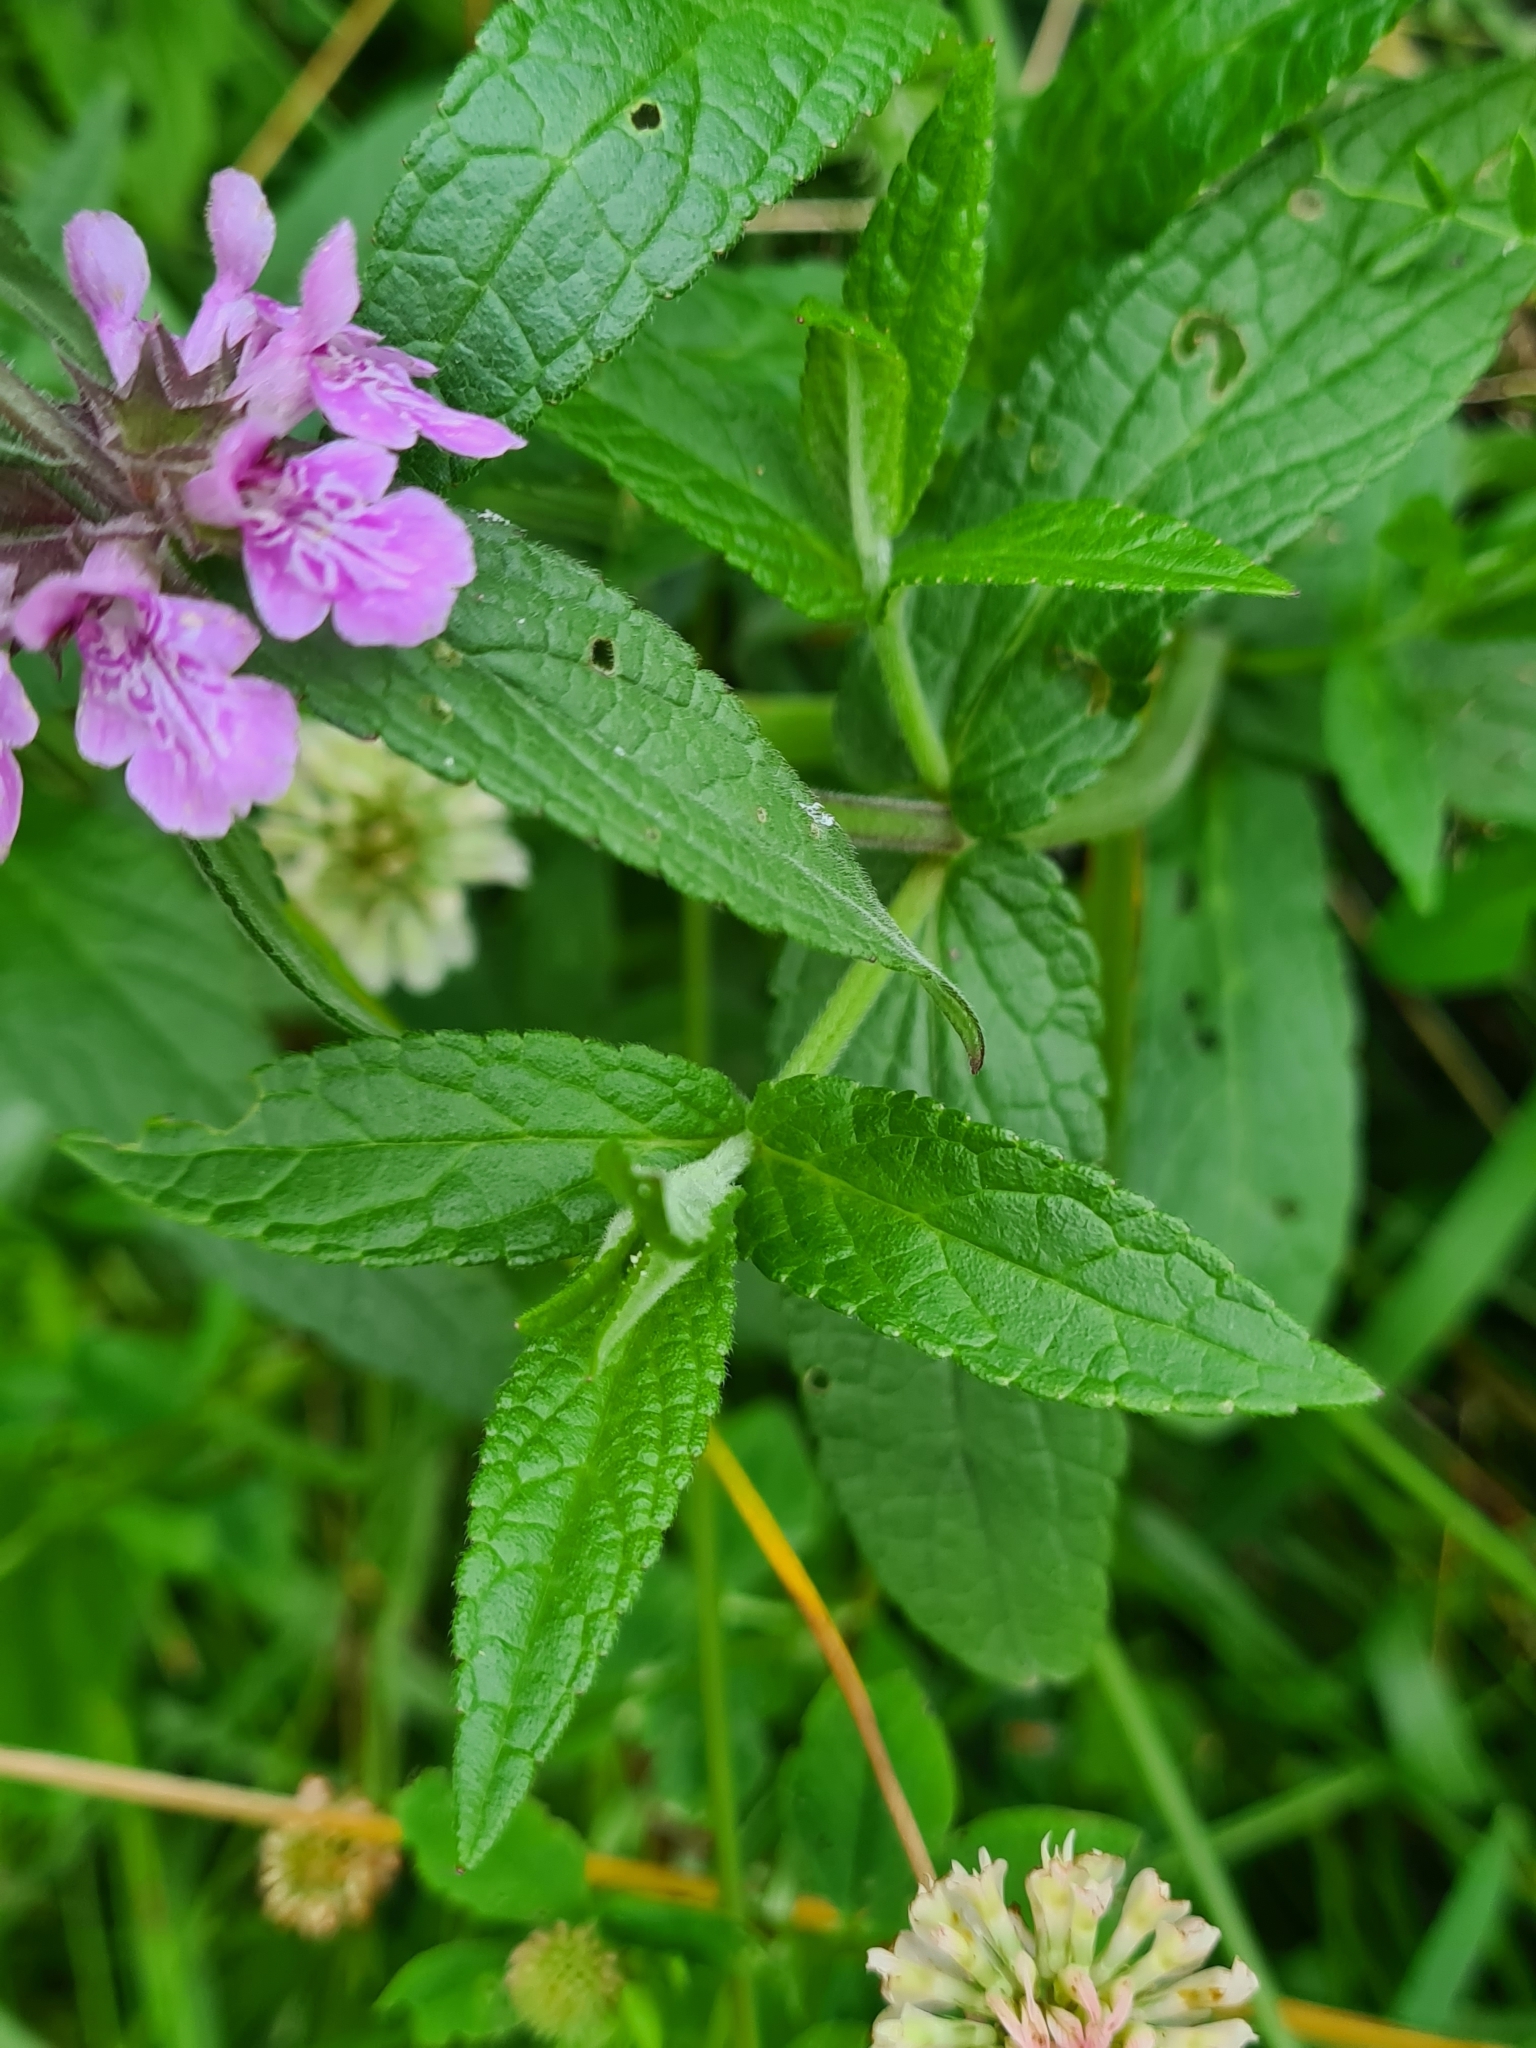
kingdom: Plantae
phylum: Tracheophyta
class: Magnoliopsida
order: Lamiales
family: Lamiaceae
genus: Stachys
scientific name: Stachys palustris
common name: Marsh woundwort
